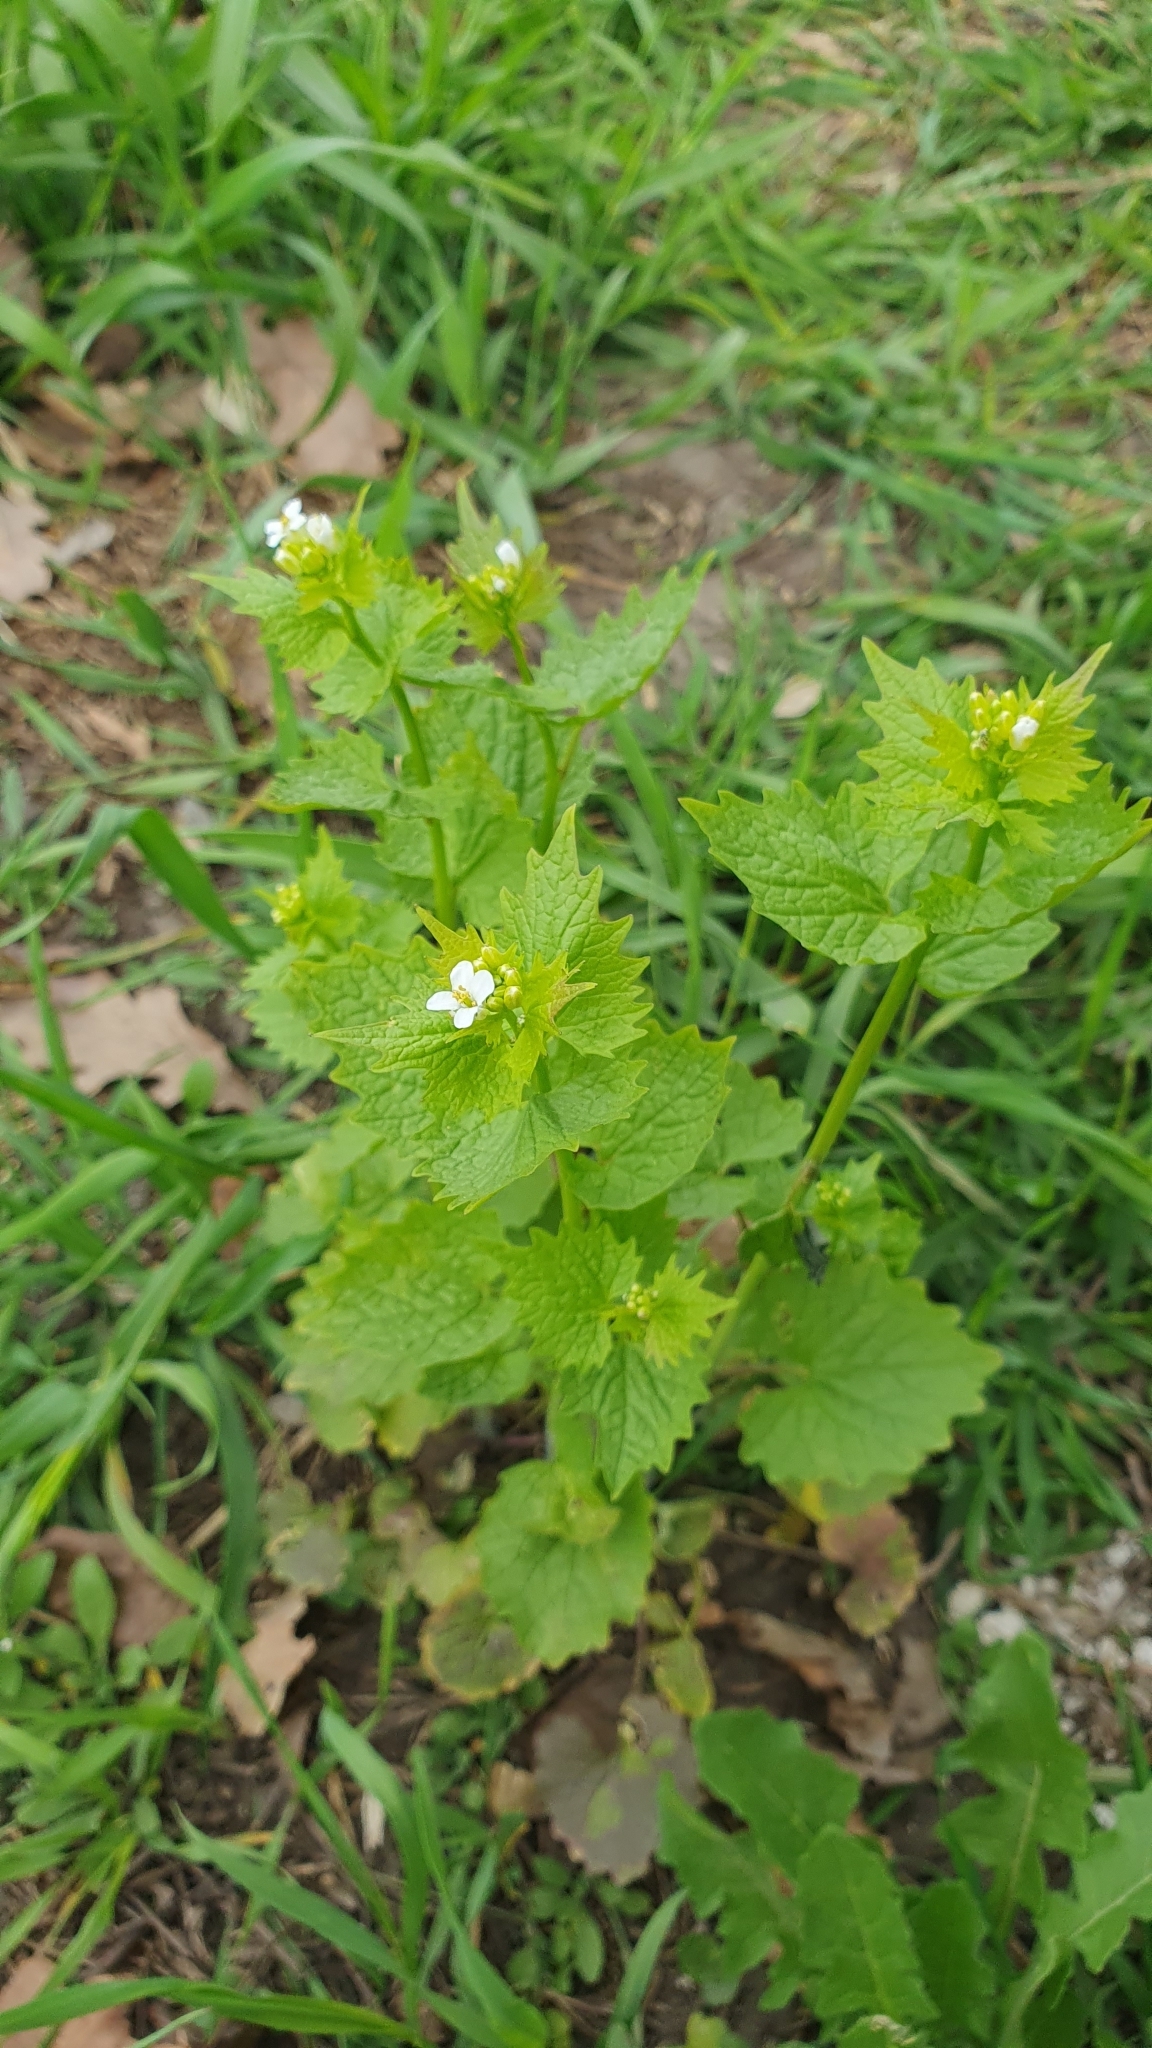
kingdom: Plantae
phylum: Tracheophyta
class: Magnoliopsida
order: Brassicales
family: Brassicaceae
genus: Alliaria
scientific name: Alliaria petiolata
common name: Garlic mustard
